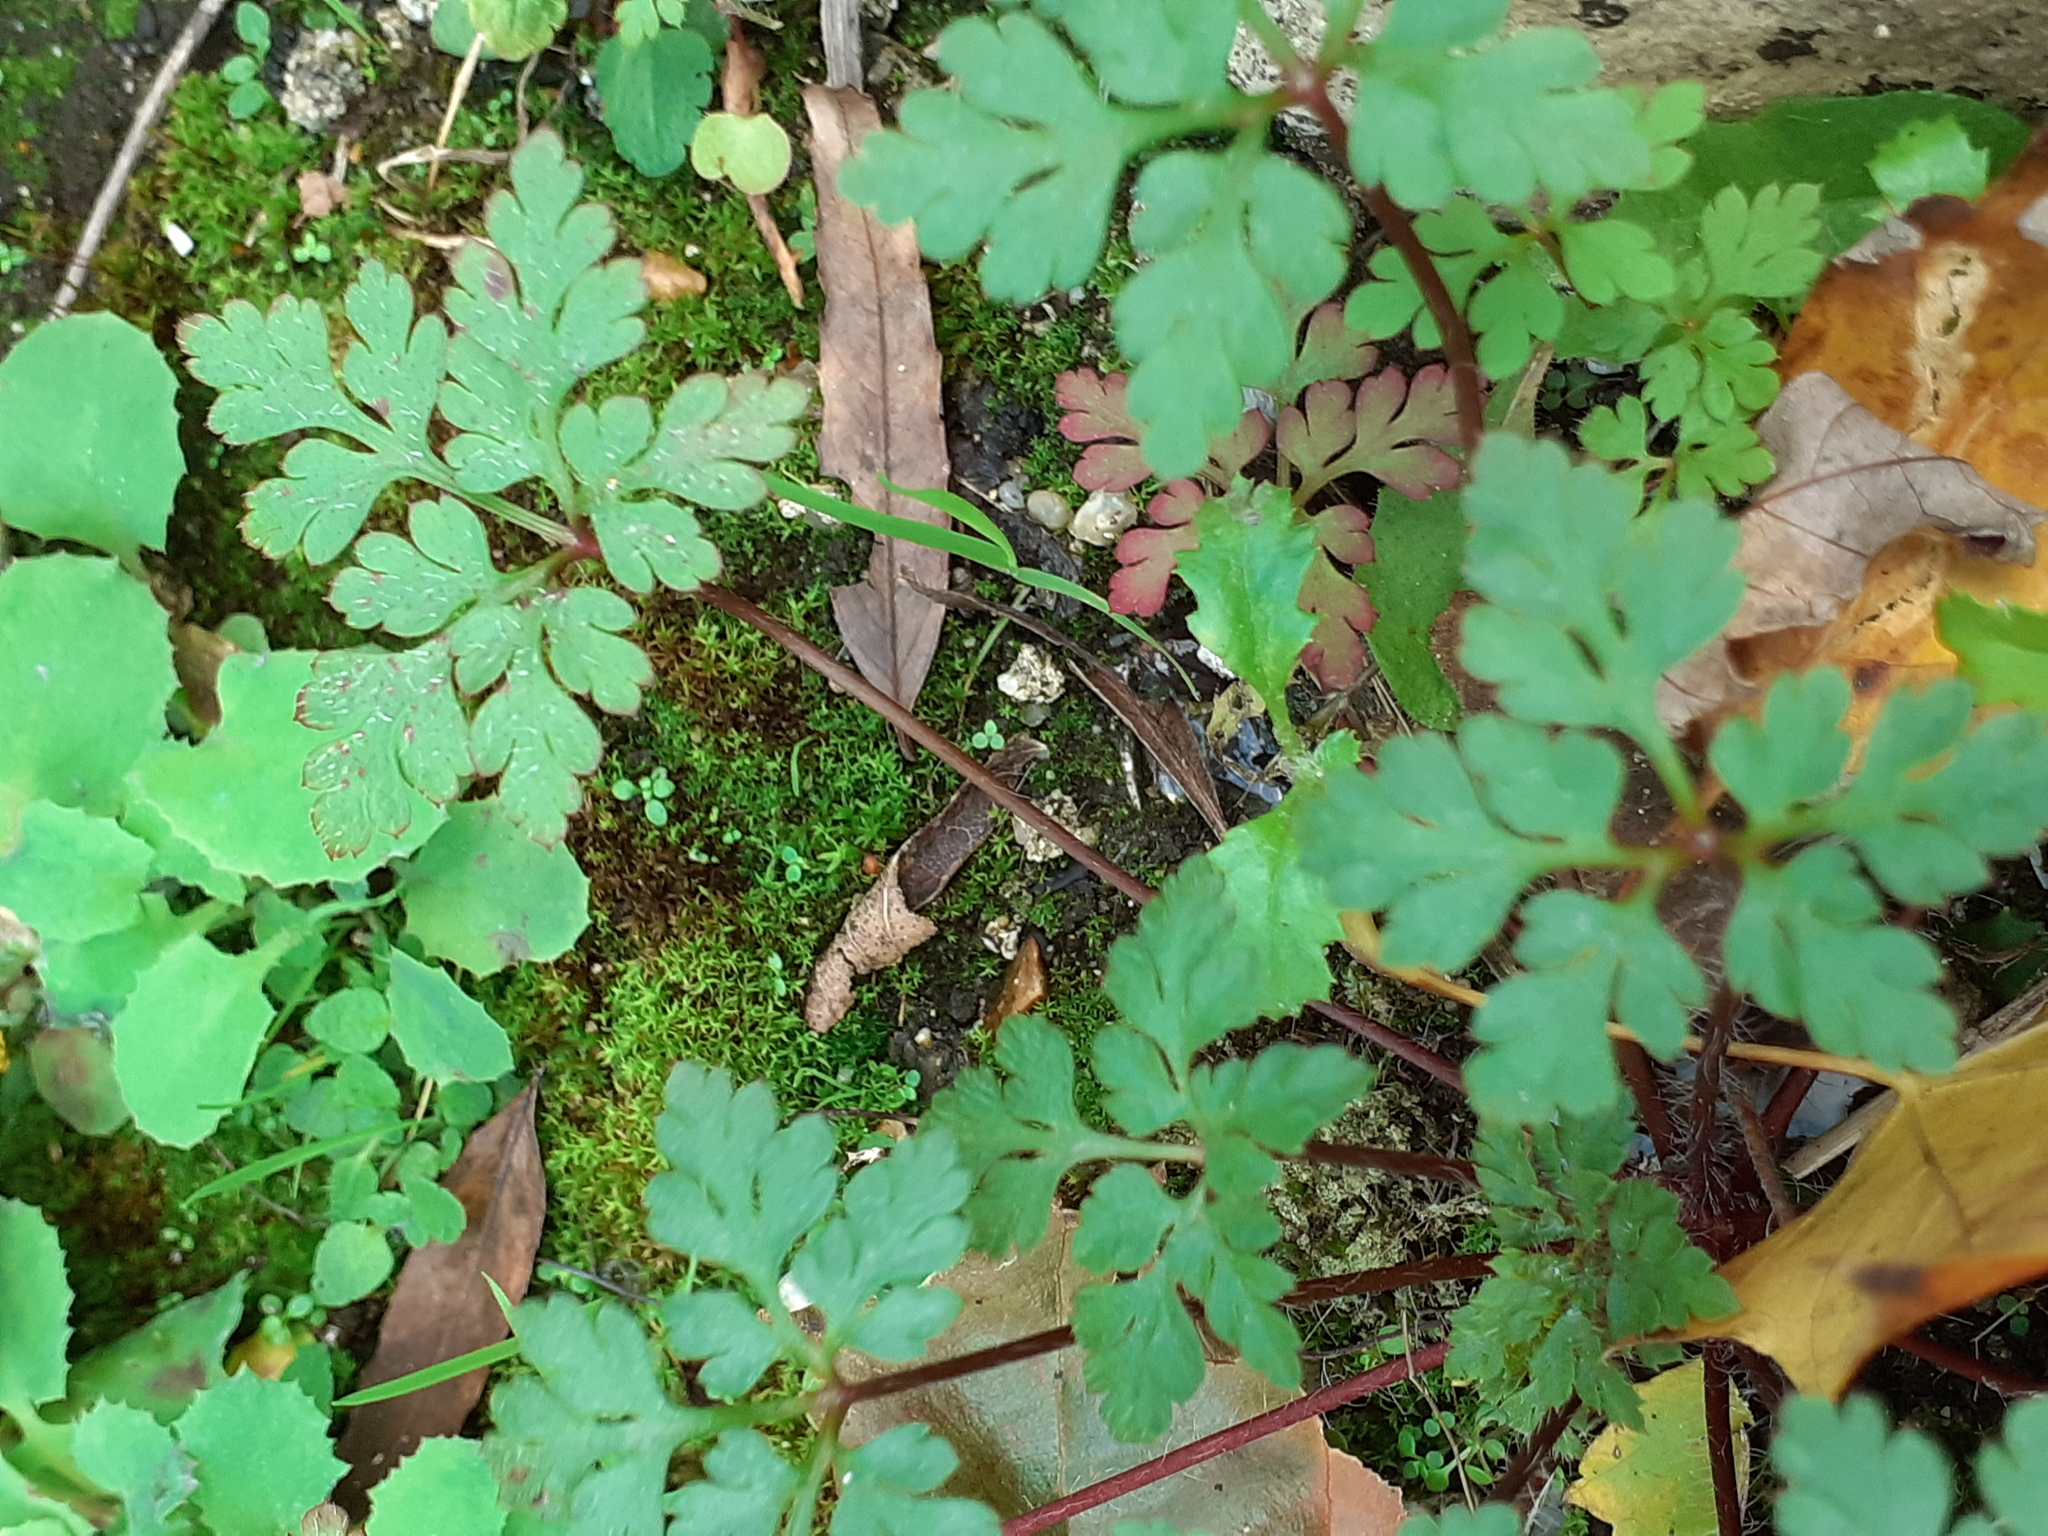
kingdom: Plantae
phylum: Tracheophyta
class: Magnoliopsida
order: Geraniales
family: Geraniaceae
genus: Geranium
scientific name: Geranium robertianum
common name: Herb-robert
